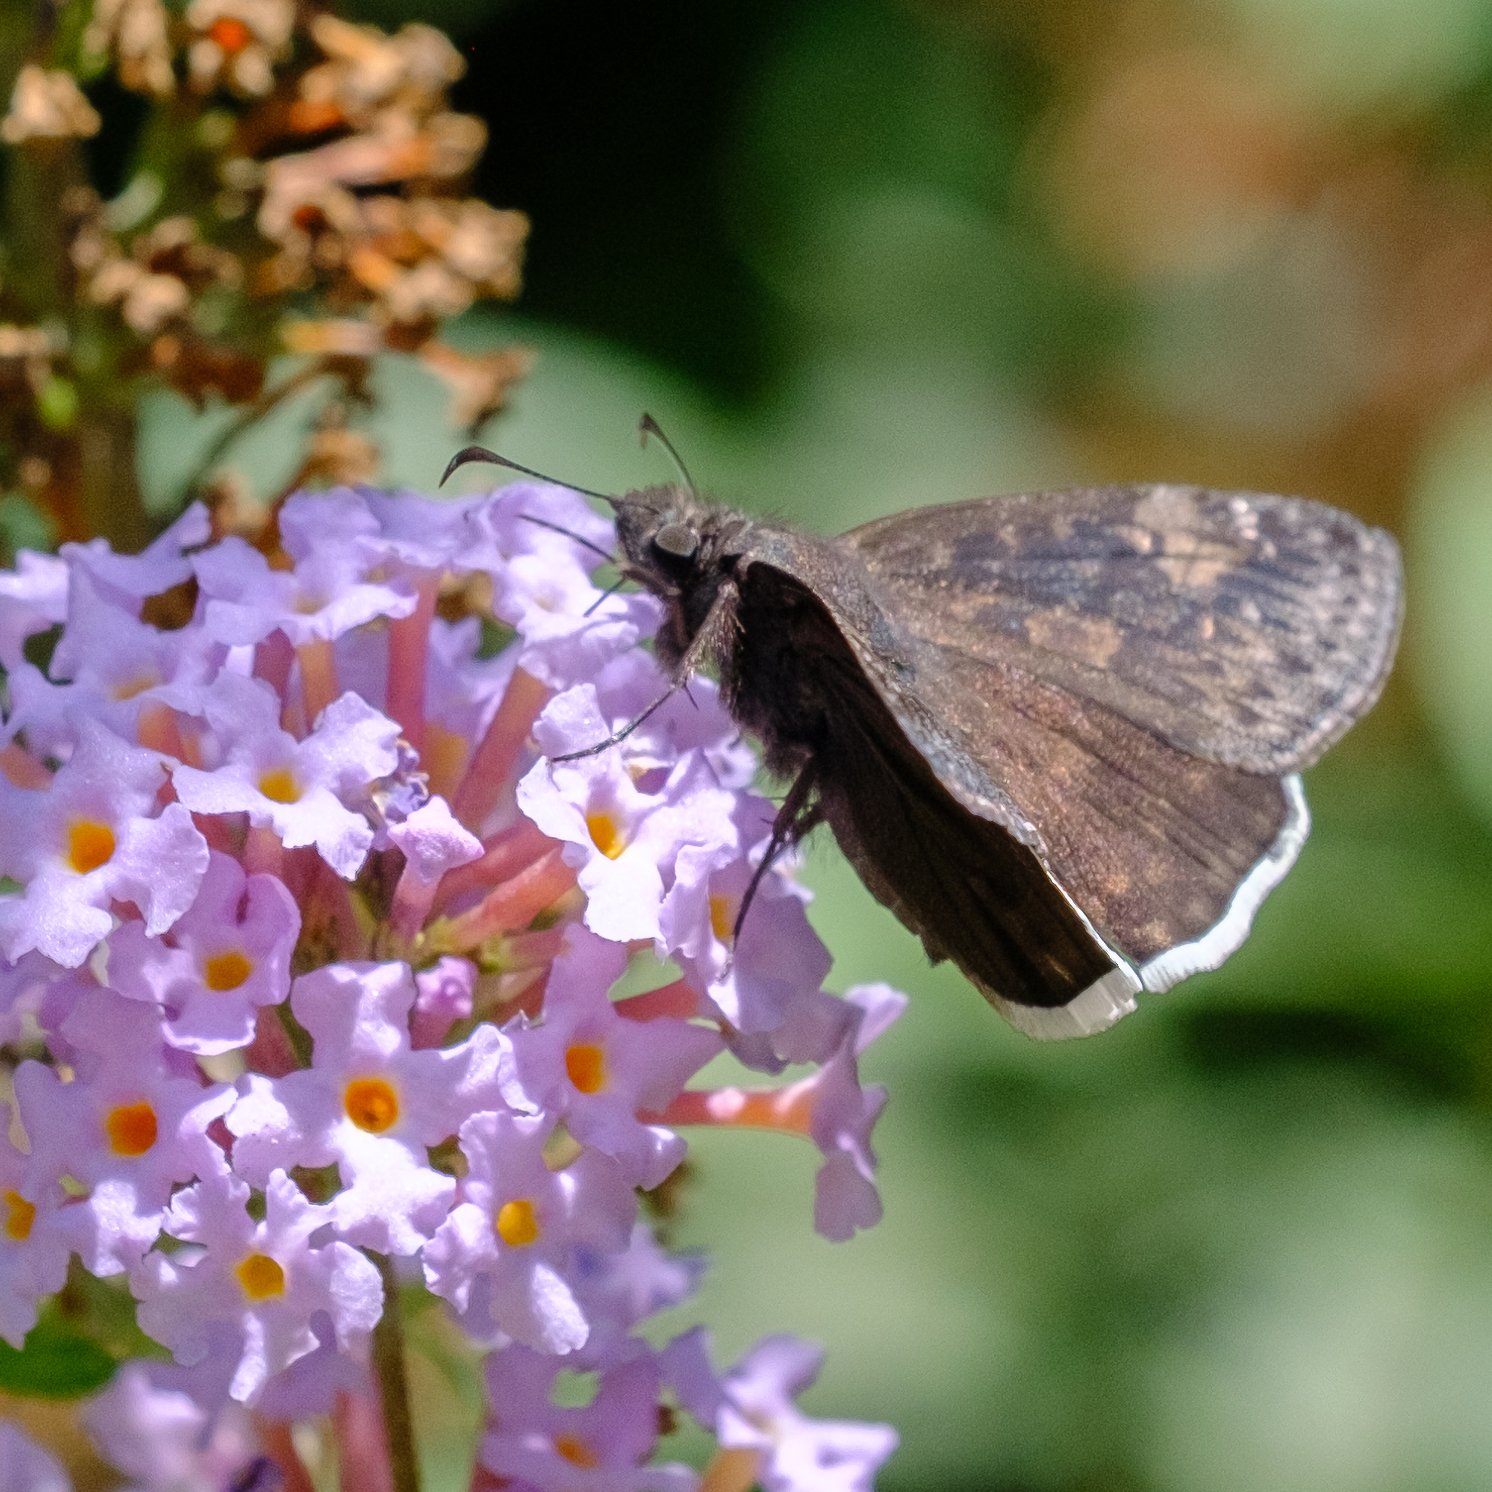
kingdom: Animalia
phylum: Arthropoda
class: Insecta
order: Lepidoptera
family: Hesperiidae
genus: Erynnis
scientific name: Erynnis funeralis
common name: Funereal duskywing
